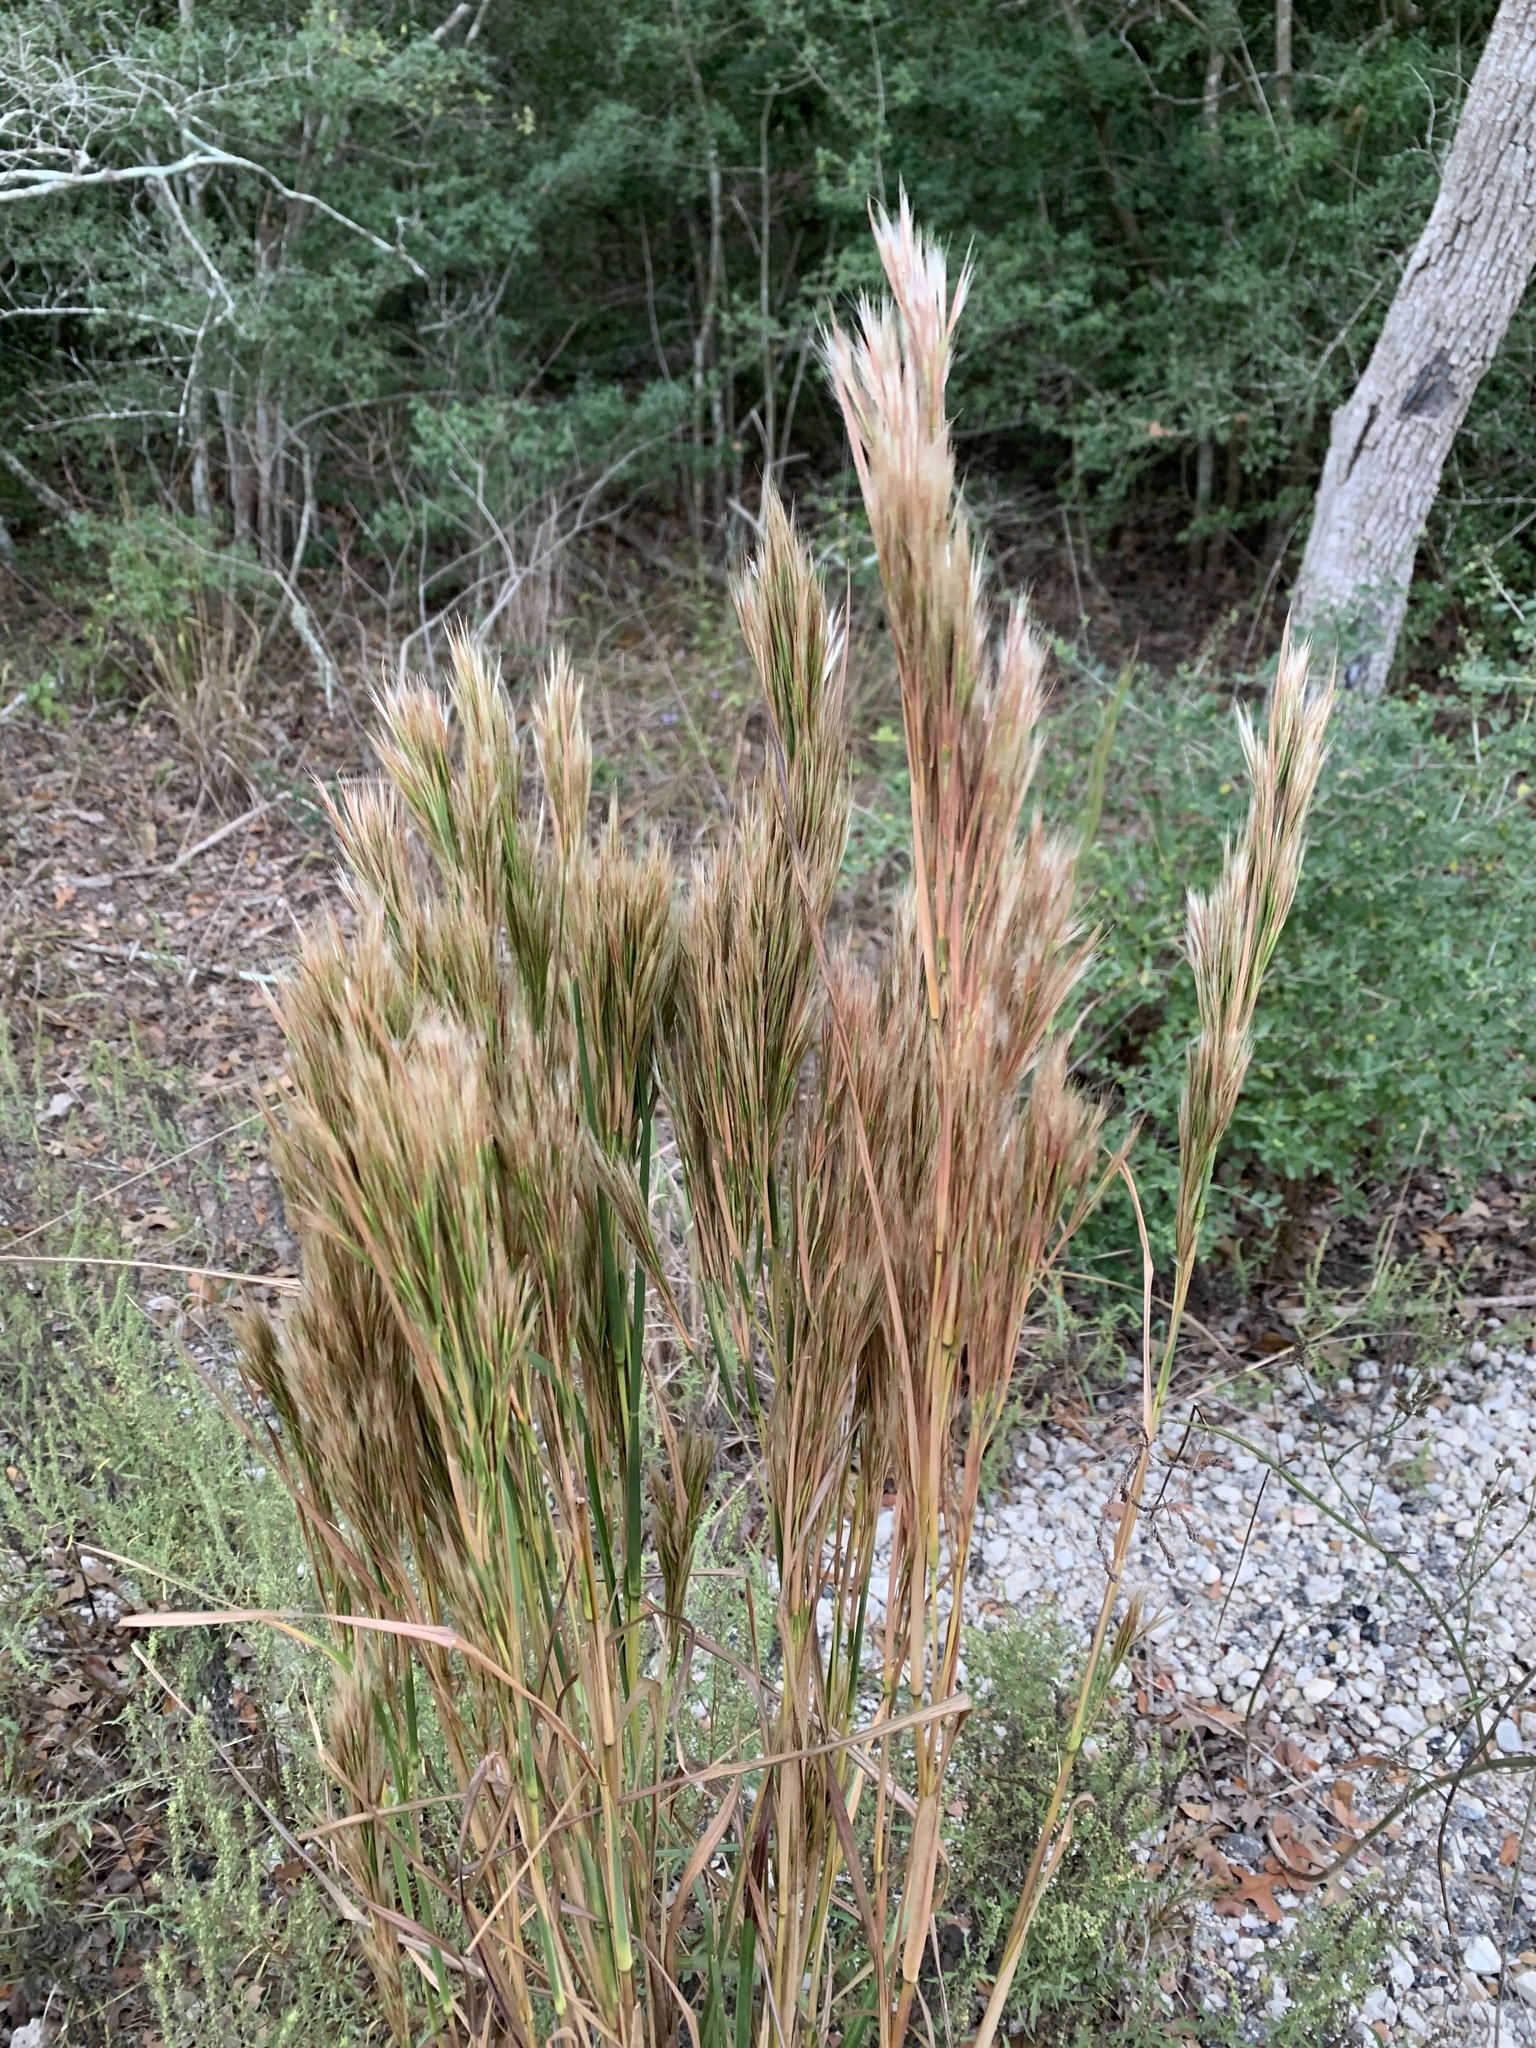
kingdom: Plantae
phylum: Tracheophyta
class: Liliopsida
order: Poales
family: Poaceae
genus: Andropogon
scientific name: Andropogon tenuispatheus
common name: Bushy bluestem
